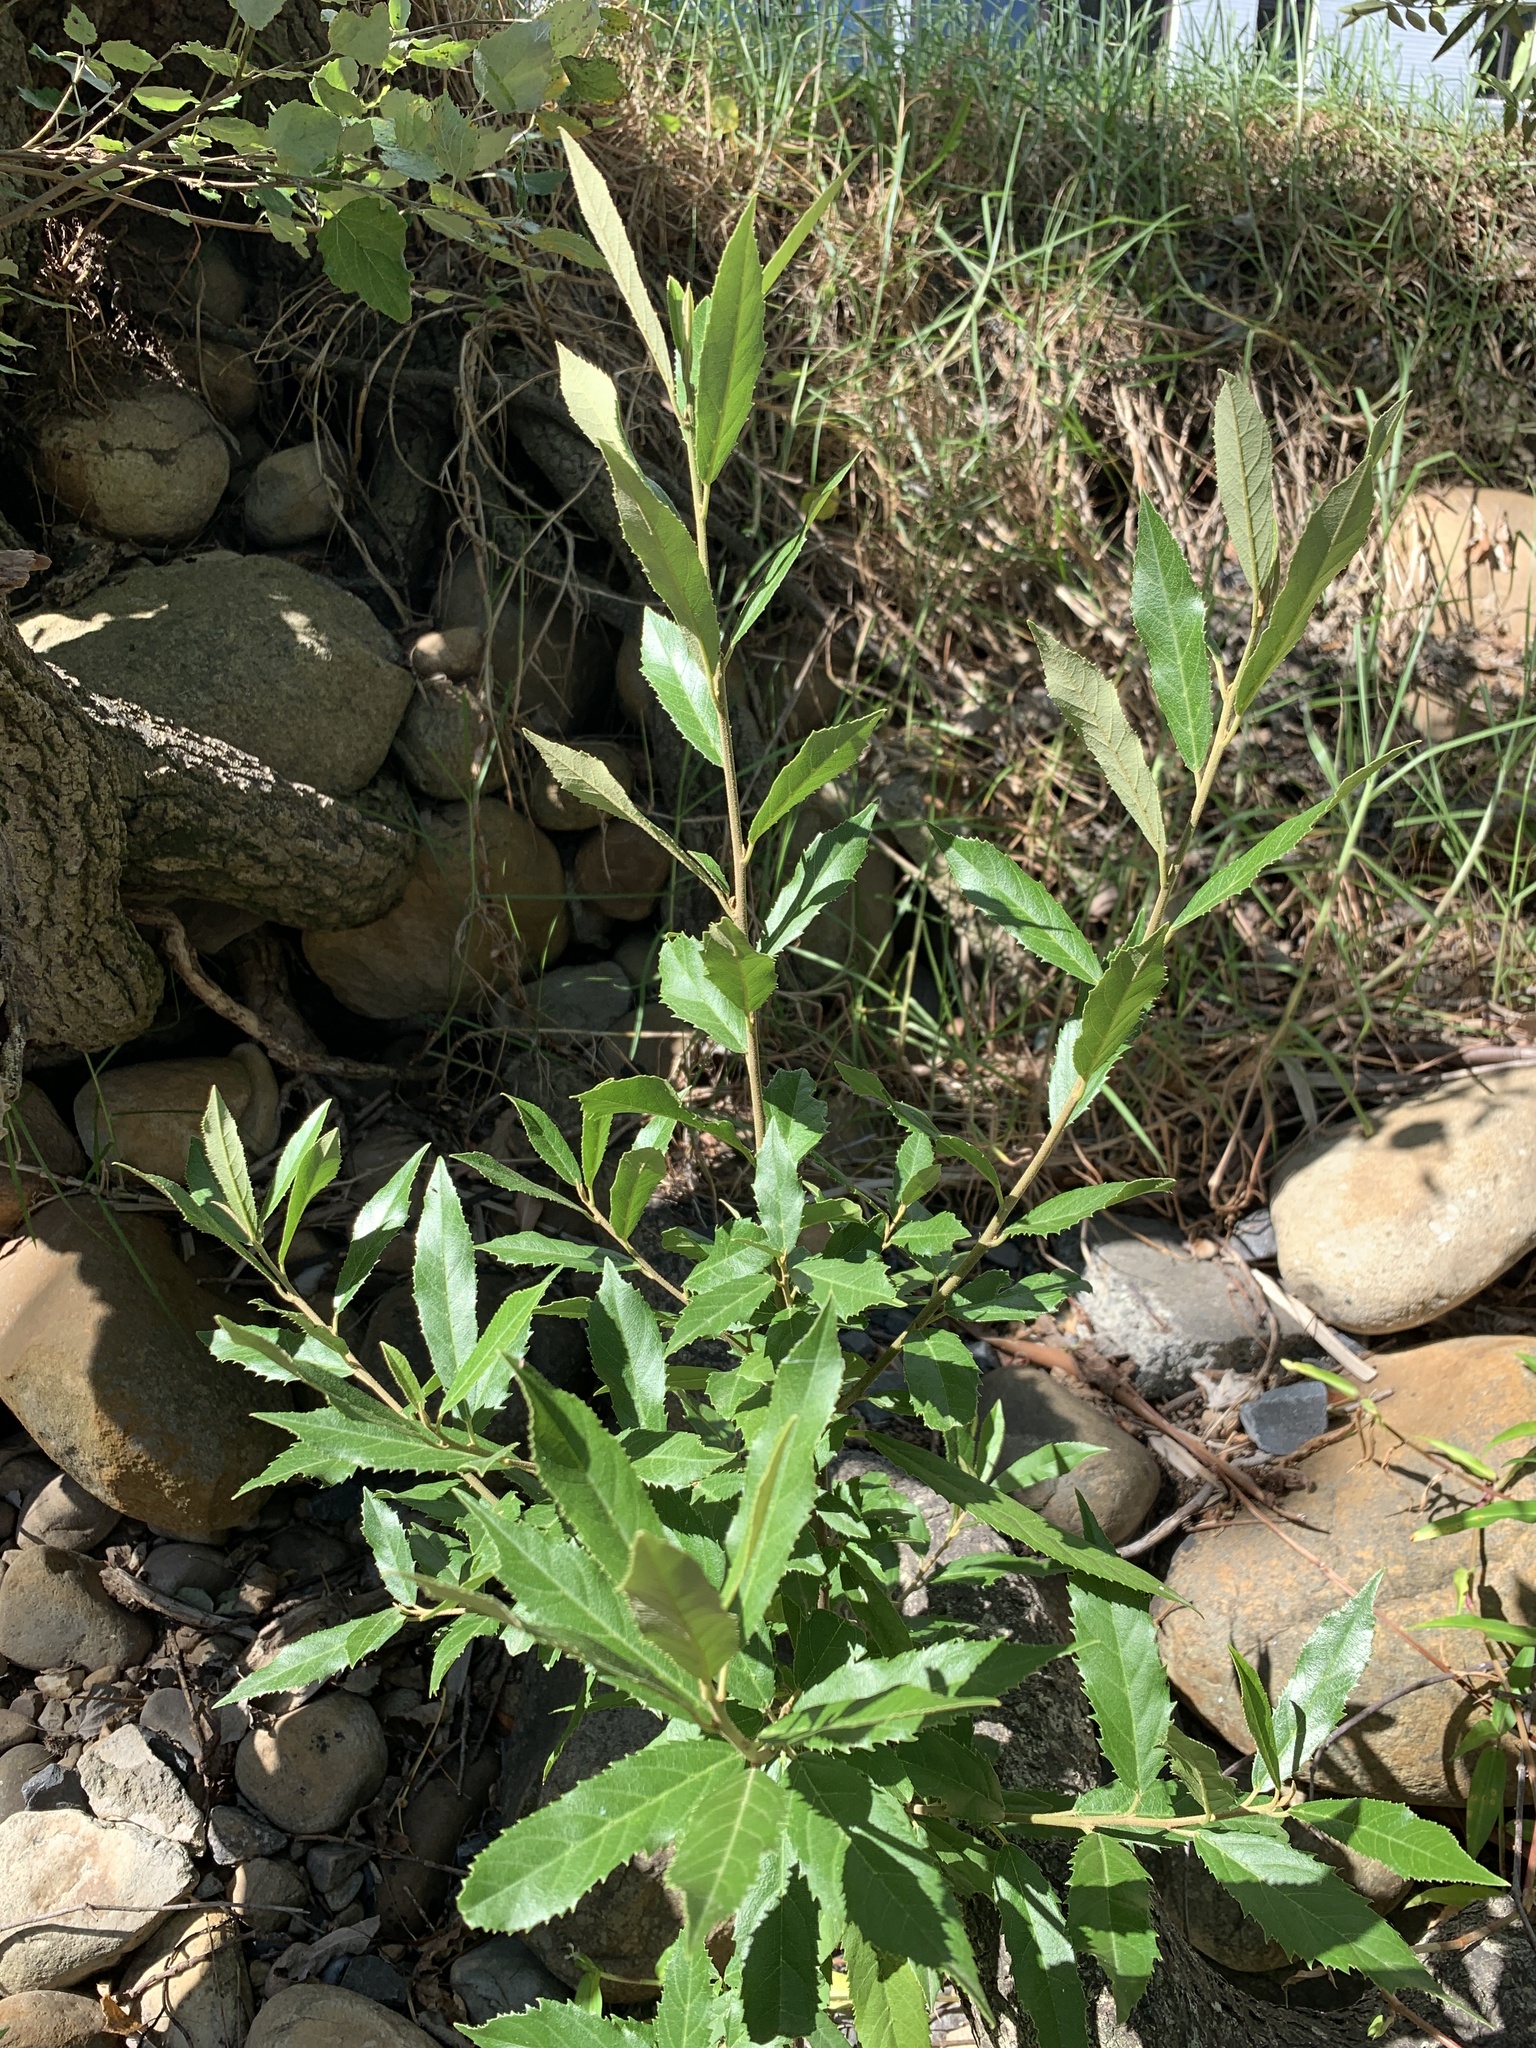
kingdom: Plantae
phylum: Tracheophyta
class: Magnoliopsida
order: Malpighiales
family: Achariaceae
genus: Kiggelaria
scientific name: Kiggelaria africana
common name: Wild peach
